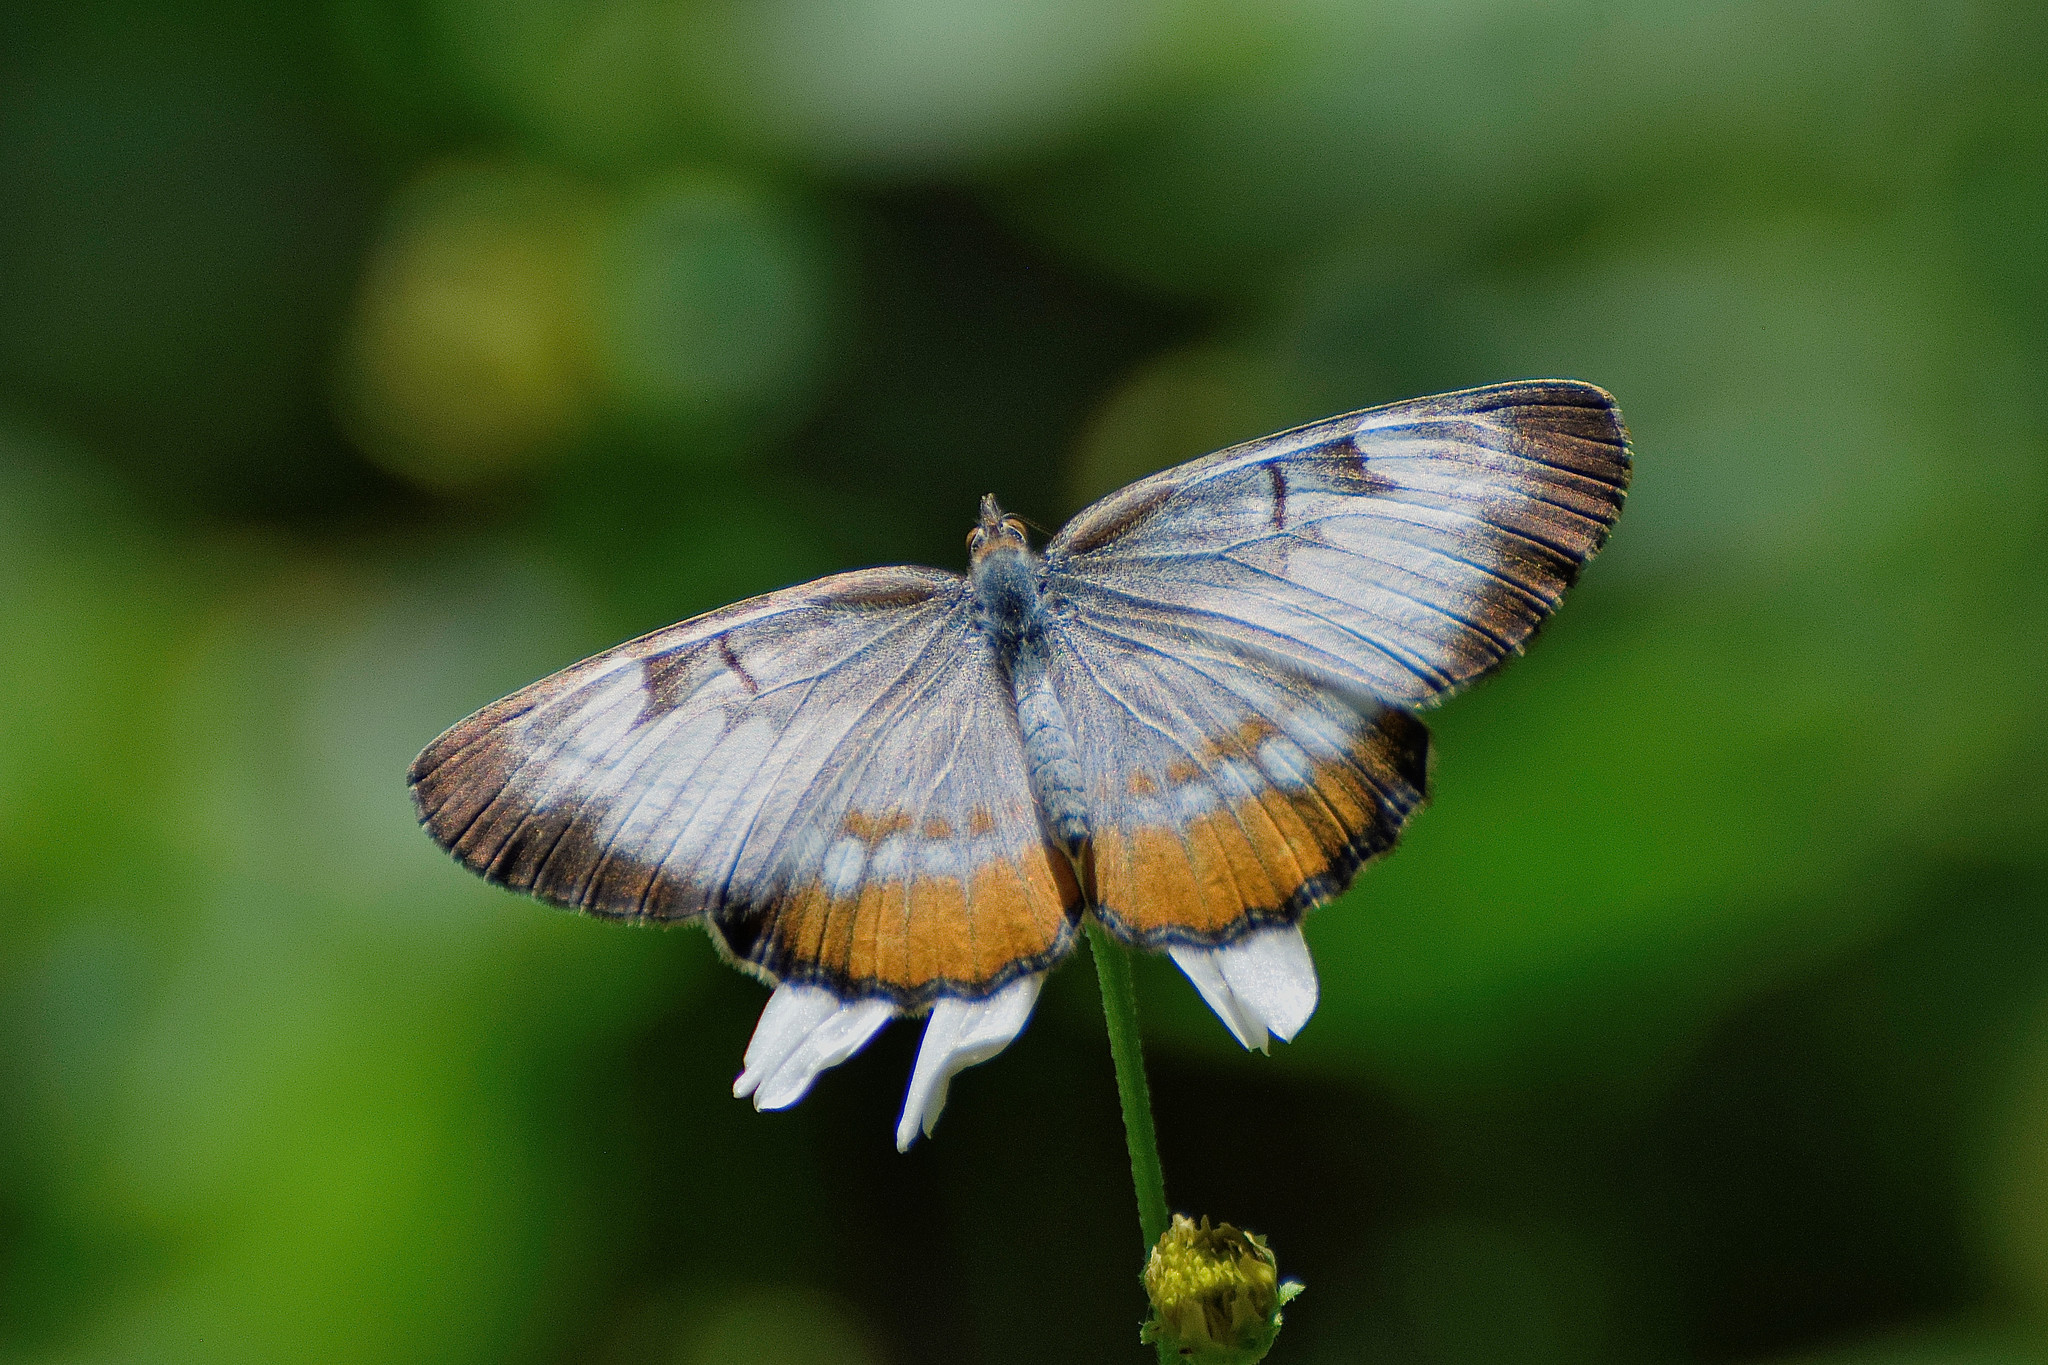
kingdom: Animalia
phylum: Arthropoda
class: Insecta
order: Lepidoptera
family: Nymphalidae
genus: Mestra
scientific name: Mestra amymone
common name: Common mestra
